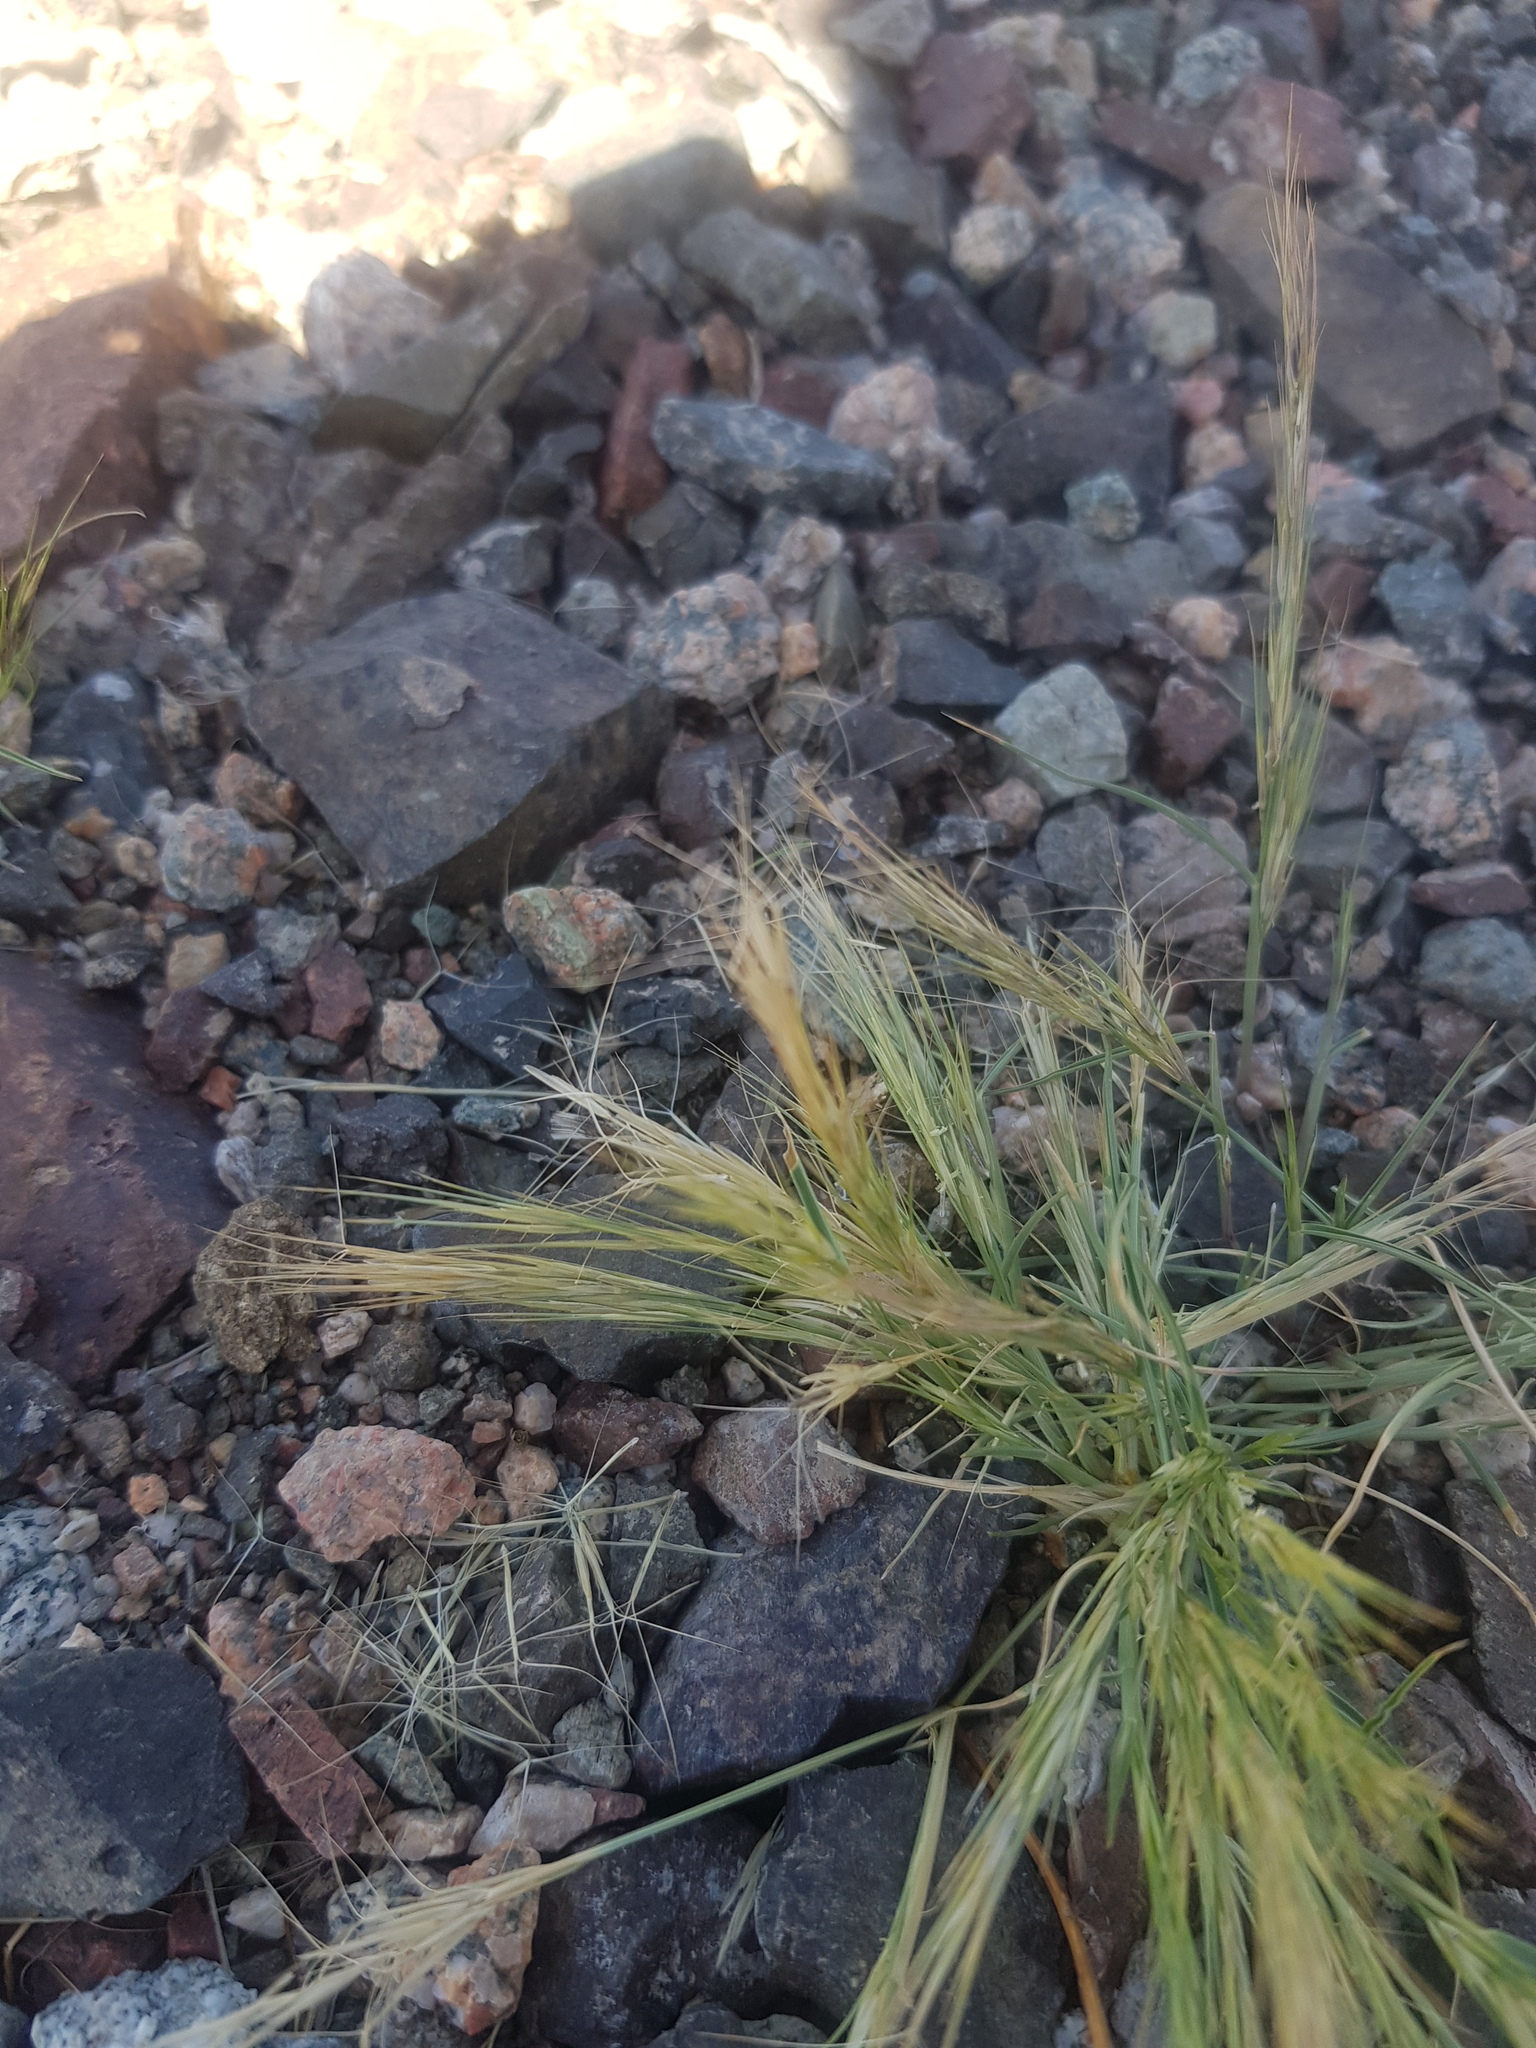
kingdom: Plantae
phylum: Tracheophyta
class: Liliopsida
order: Poales
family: Poaceae
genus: Stipa
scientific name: Stipa glareosa
